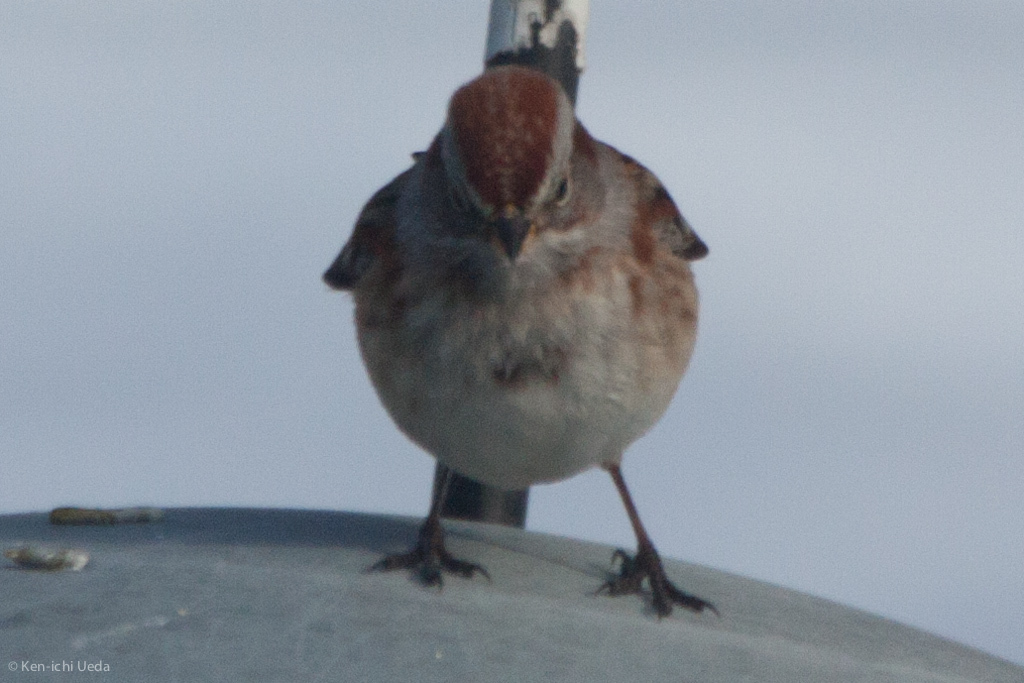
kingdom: Animalia
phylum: Chordata
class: Aves
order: Passeriformes
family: Passerellidae
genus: Spizelloides
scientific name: Spizelloides arborea
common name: American tree sparrow
